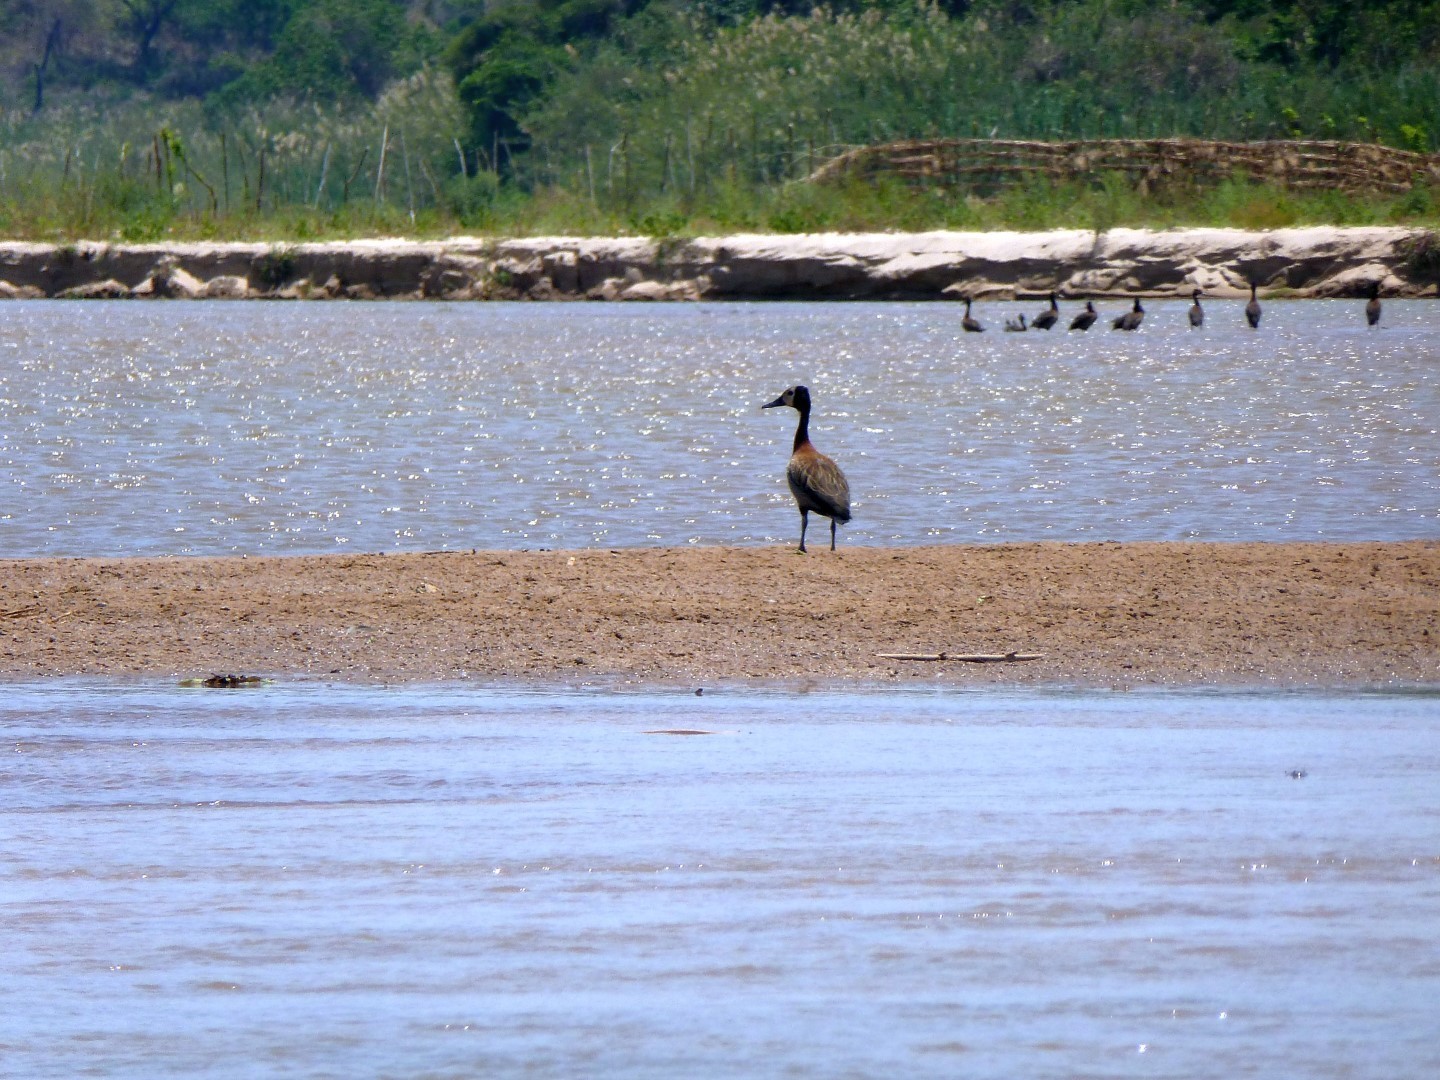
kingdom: Animalia
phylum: Chordata
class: Aves
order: Anseriformes
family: Anatidae
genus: Dendrocygna
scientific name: Dendrocygna viduata
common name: White-faced whistling duck
